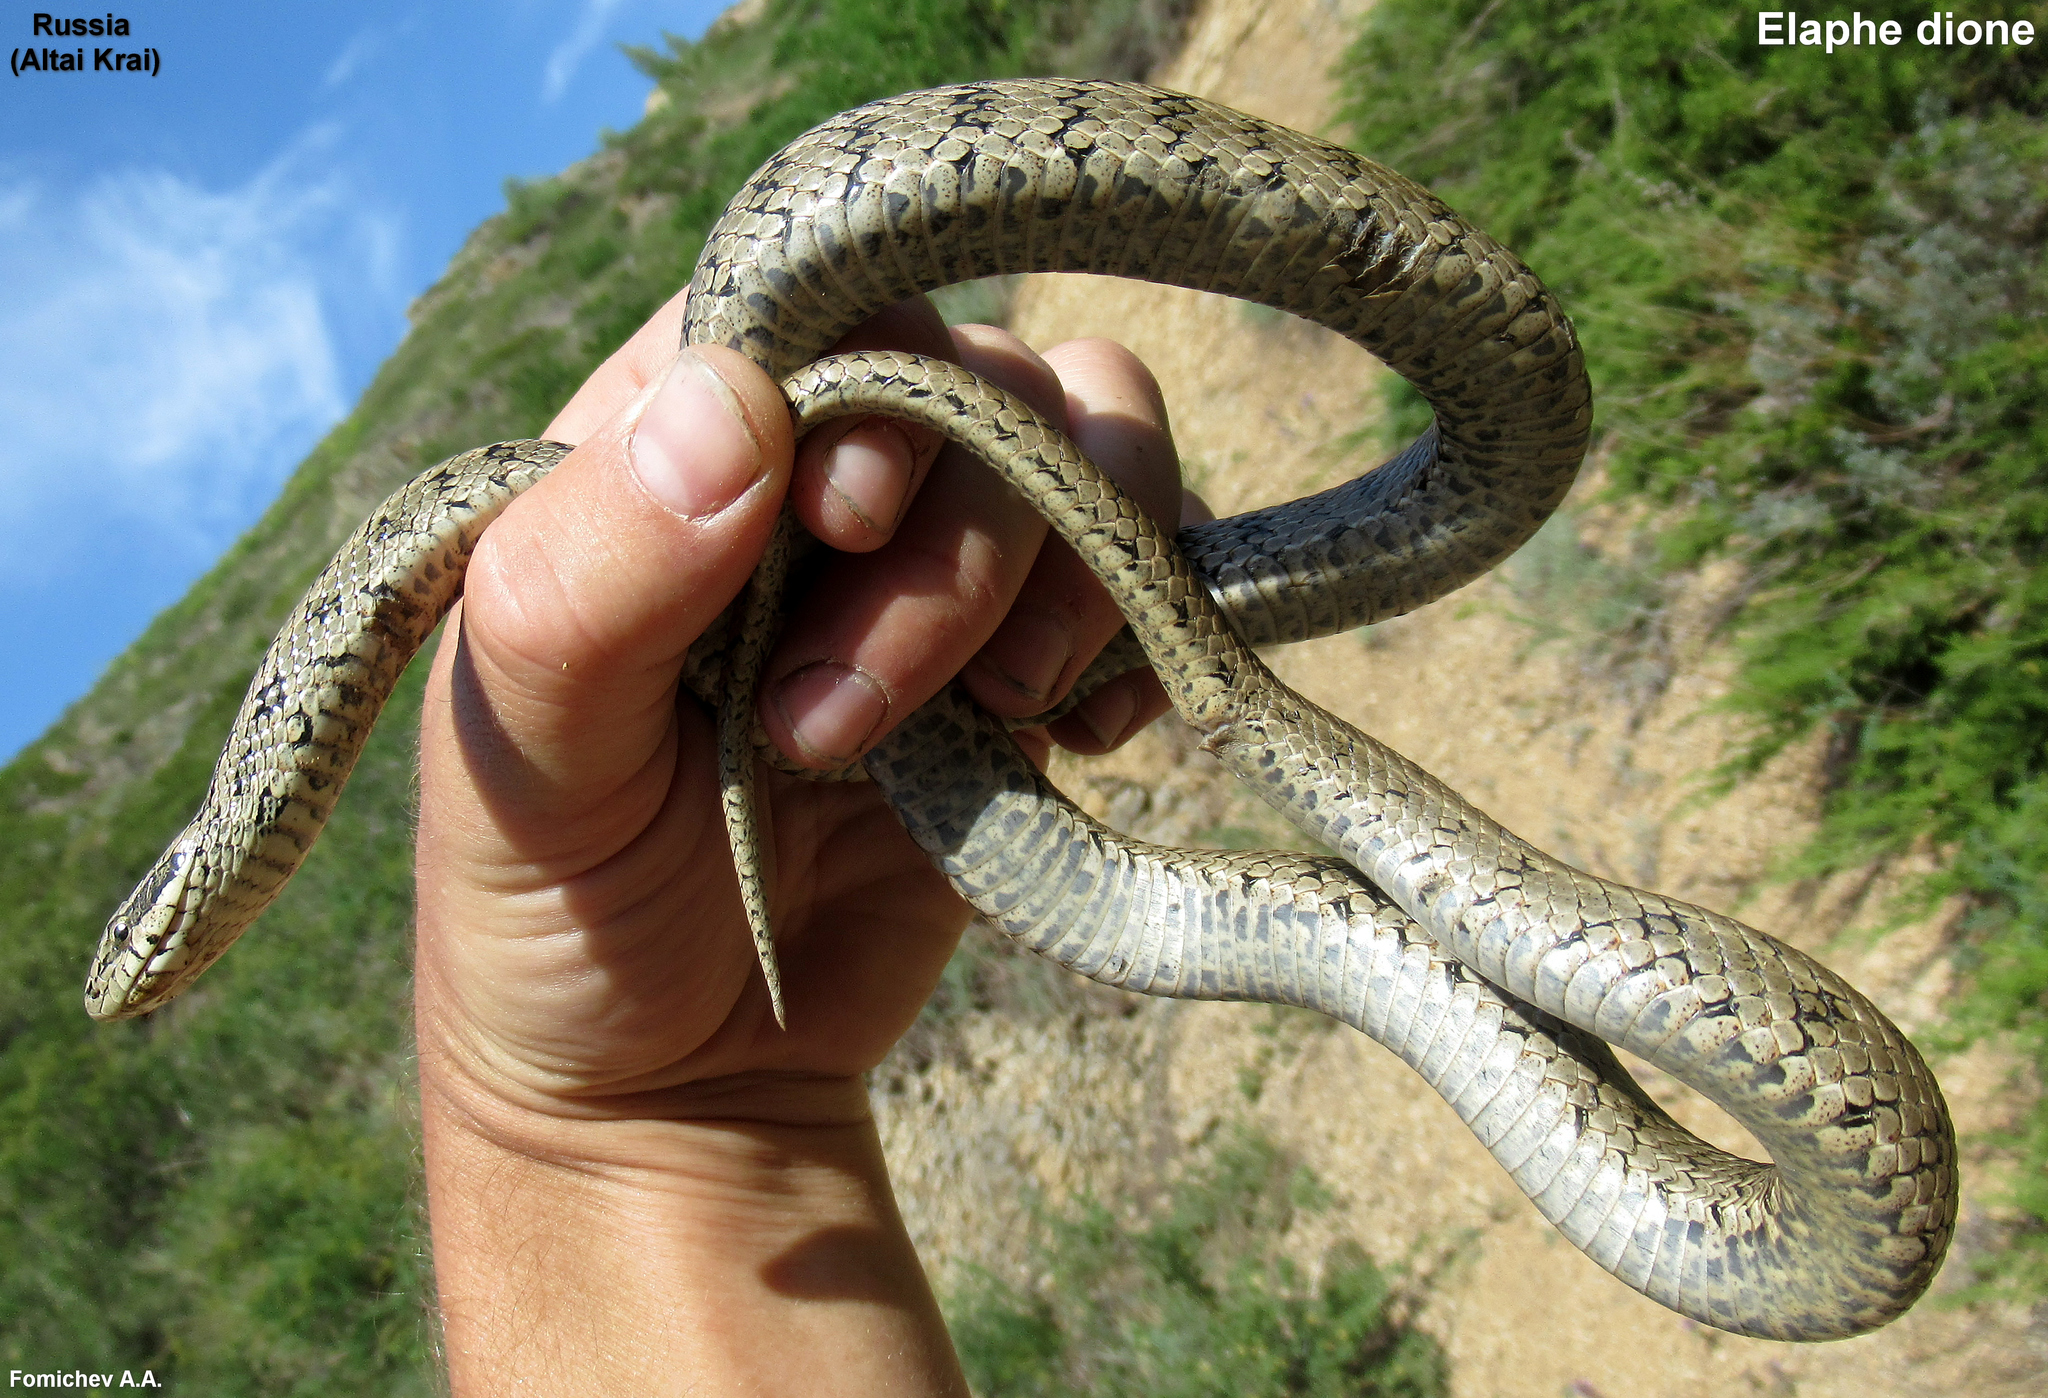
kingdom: Animalia
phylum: Chordata
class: Squamata
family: Colubridae
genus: Elaphe
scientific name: Elaphe dione
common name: Dione ratsnake
